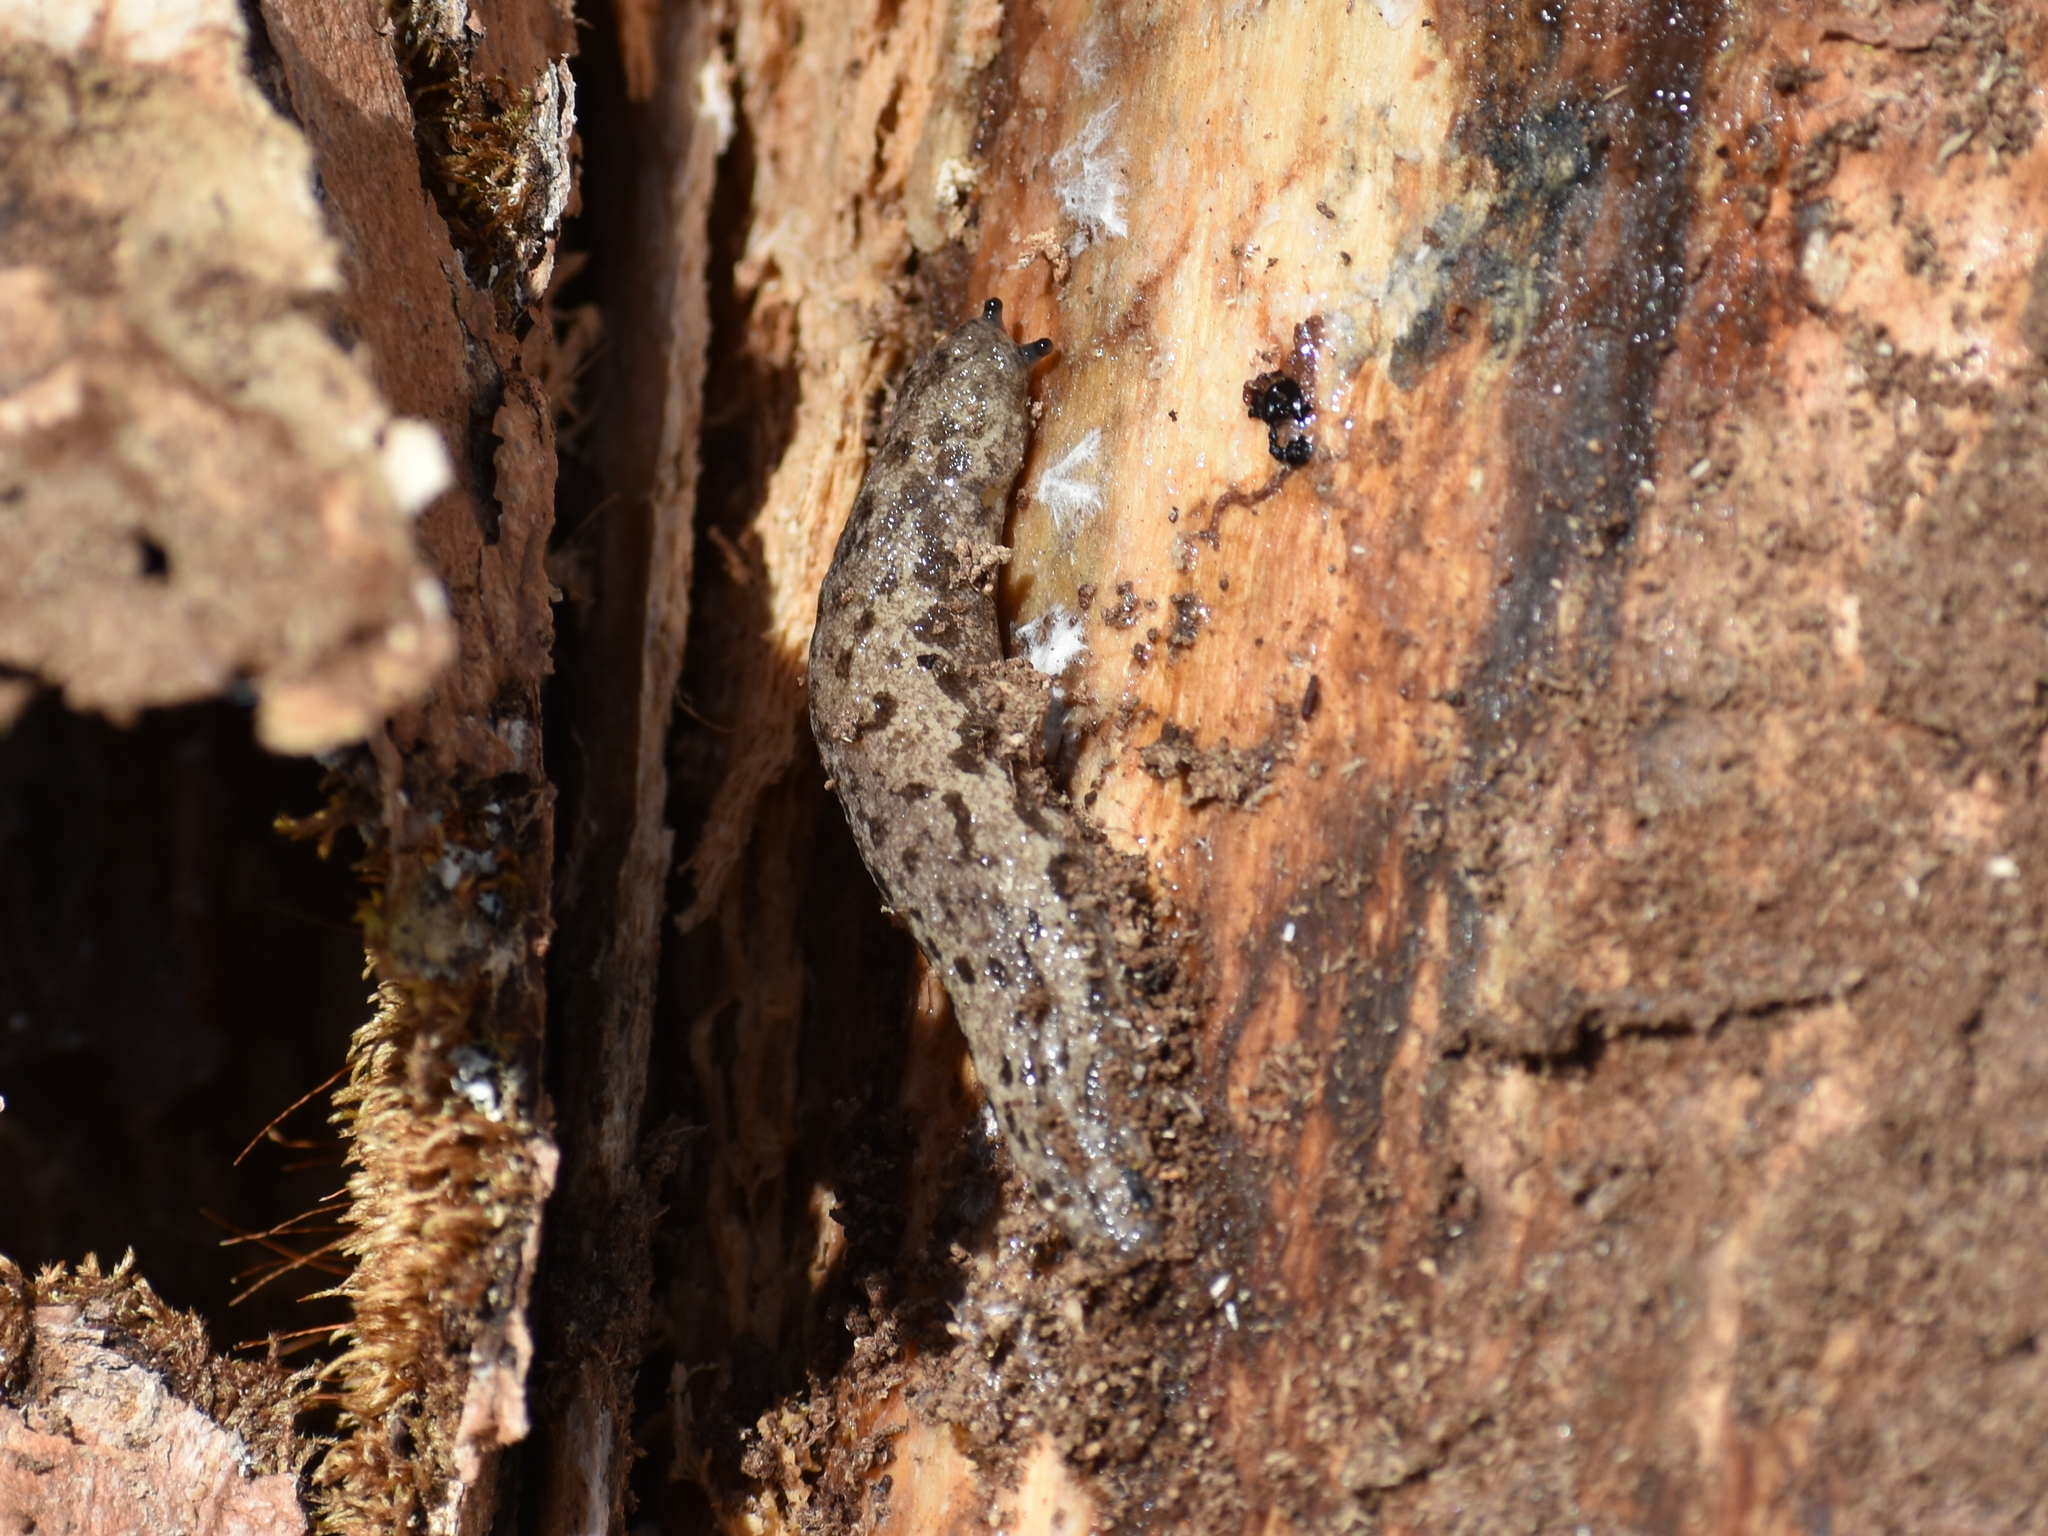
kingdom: Animalia
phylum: Mollusca
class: Gastropoda
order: Stylommatophora
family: Philomycidae
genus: Megapallifera
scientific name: Megapallifera mutabilis
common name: Changeable mantleslug
